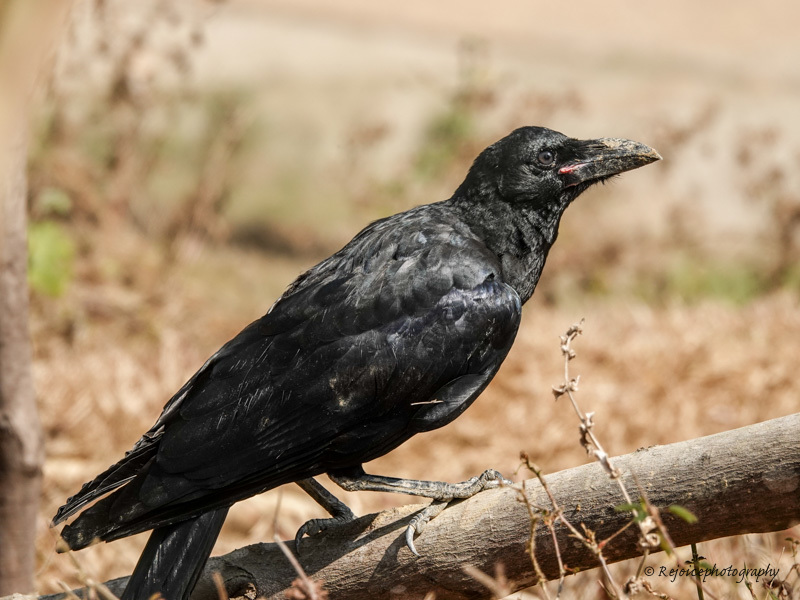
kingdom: Animalia
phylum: Chordata
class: Aves
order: Passeriformes
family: Corvidae
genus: Corvus
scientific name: Corvus macrorhynchos
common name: Large-billed crow
